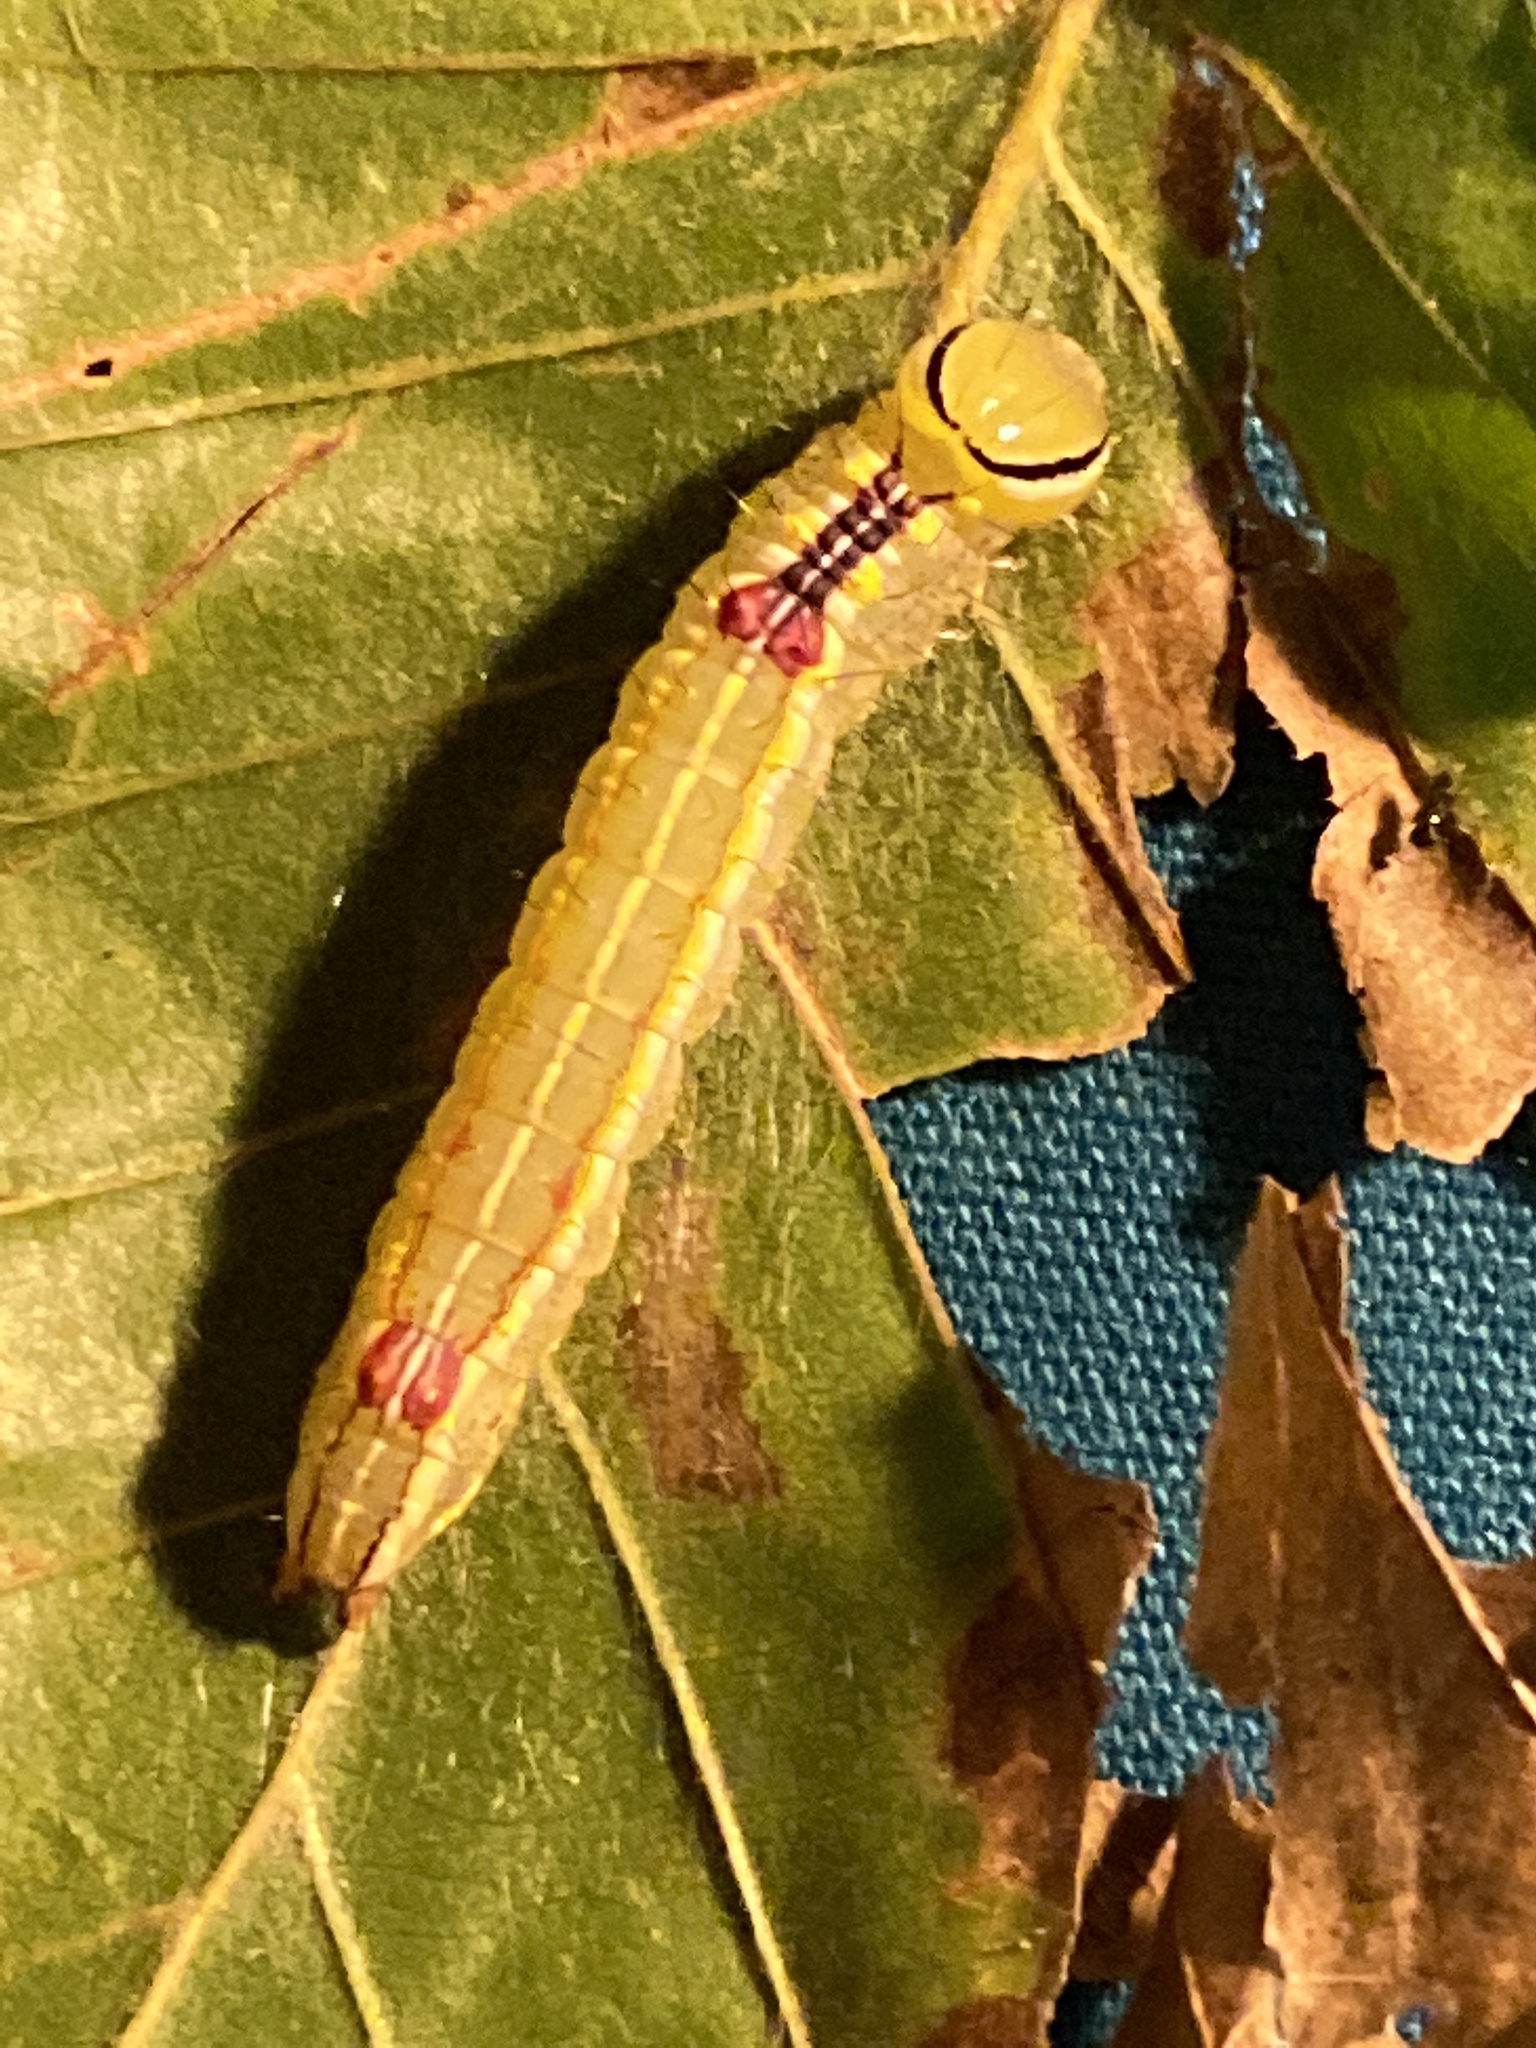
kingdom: Animalia
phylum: Arthropoda
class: Insecta
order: Lepidoptera
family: Notodontidae
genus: Lochmaeus
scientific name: Lochmaeus manteo
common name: Variable oakleaf caterpillar moth
